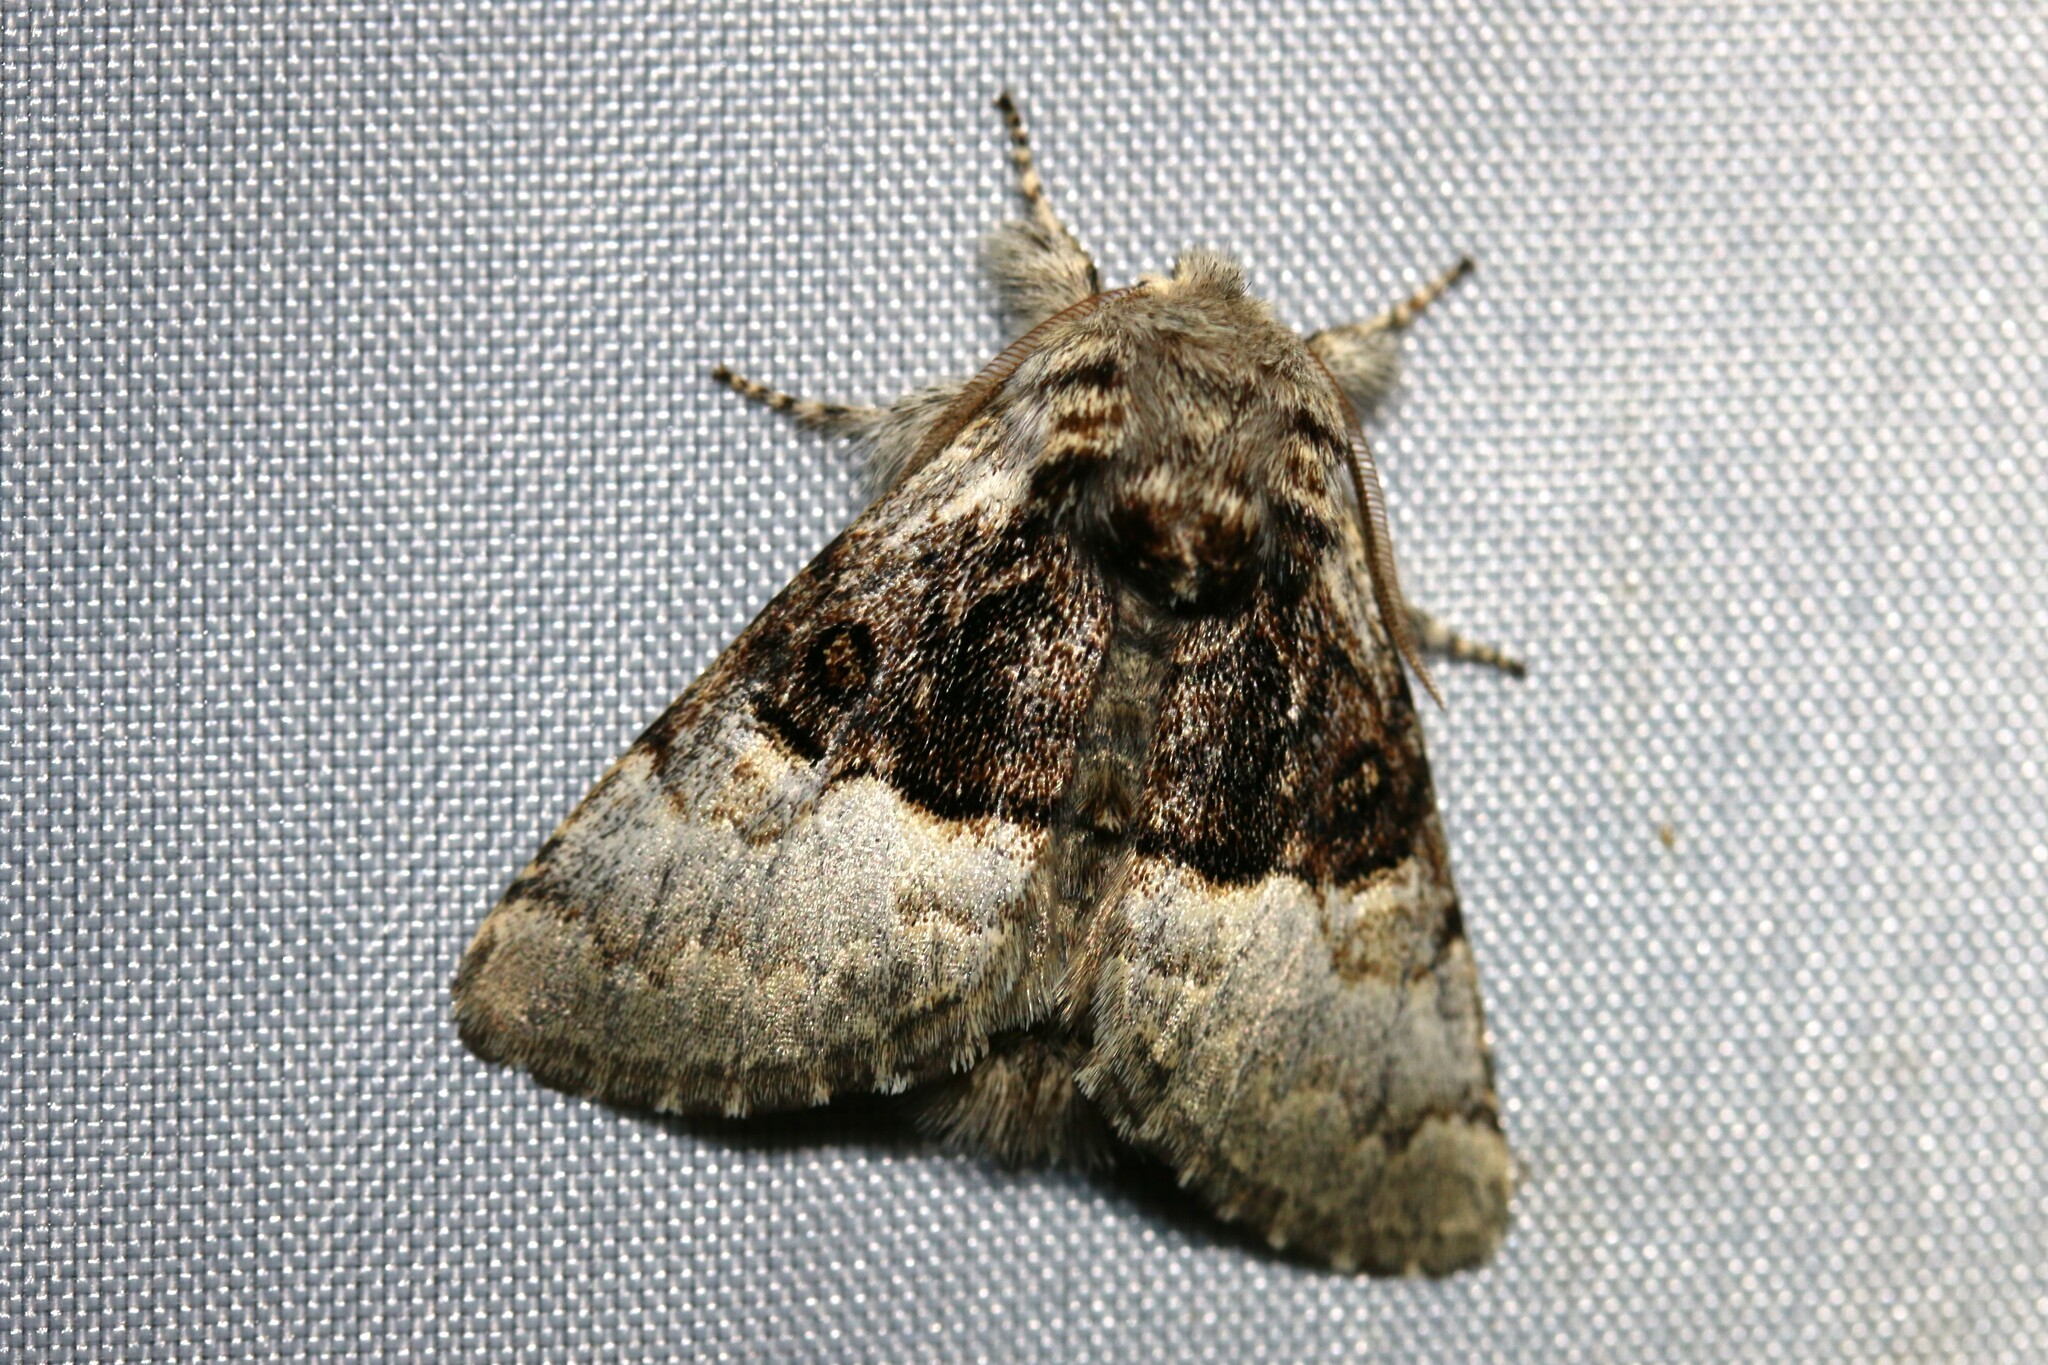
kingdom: Animalia
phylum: Arthropoda
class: Insecta
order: Lepidoptera
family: Noctuidae
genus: Colocasia
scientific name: Colocasia coryli
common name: Nut-tree tussock
